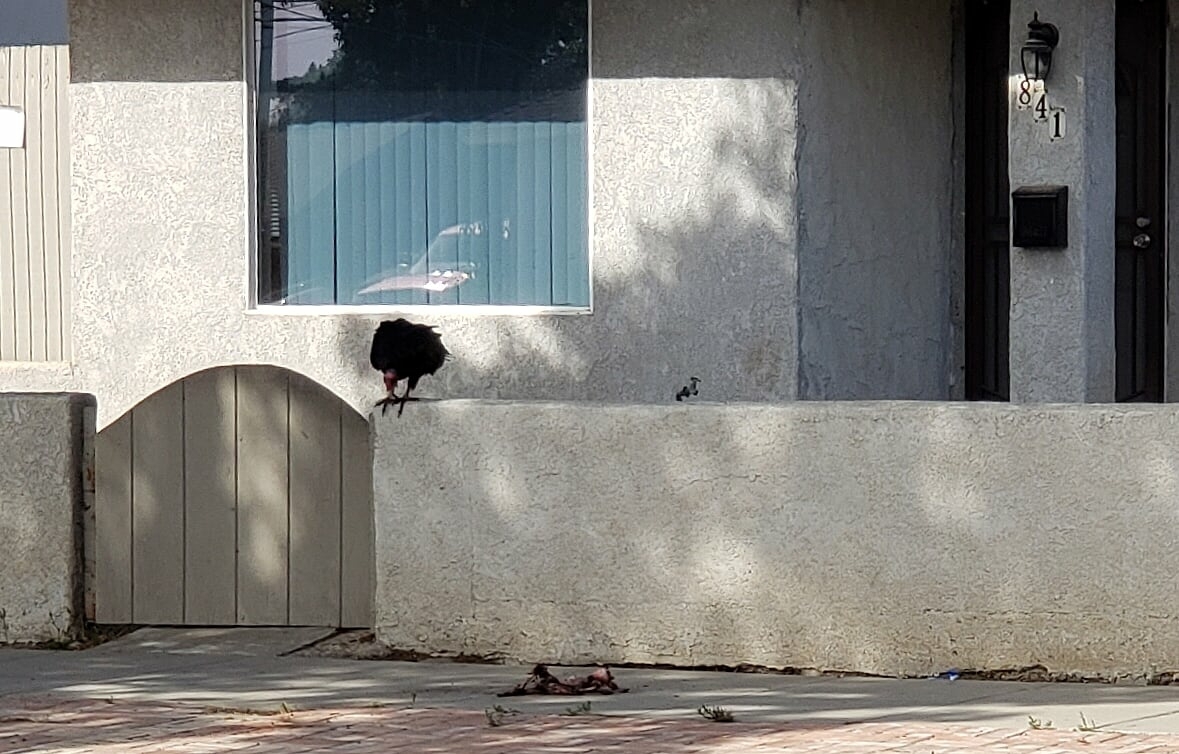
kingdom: Animalia
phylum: Chordata
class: Aves
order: Accipitriformes
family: Cathartidae
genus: Cathartes
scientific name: Cathartes aura
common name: Turkey vulture
